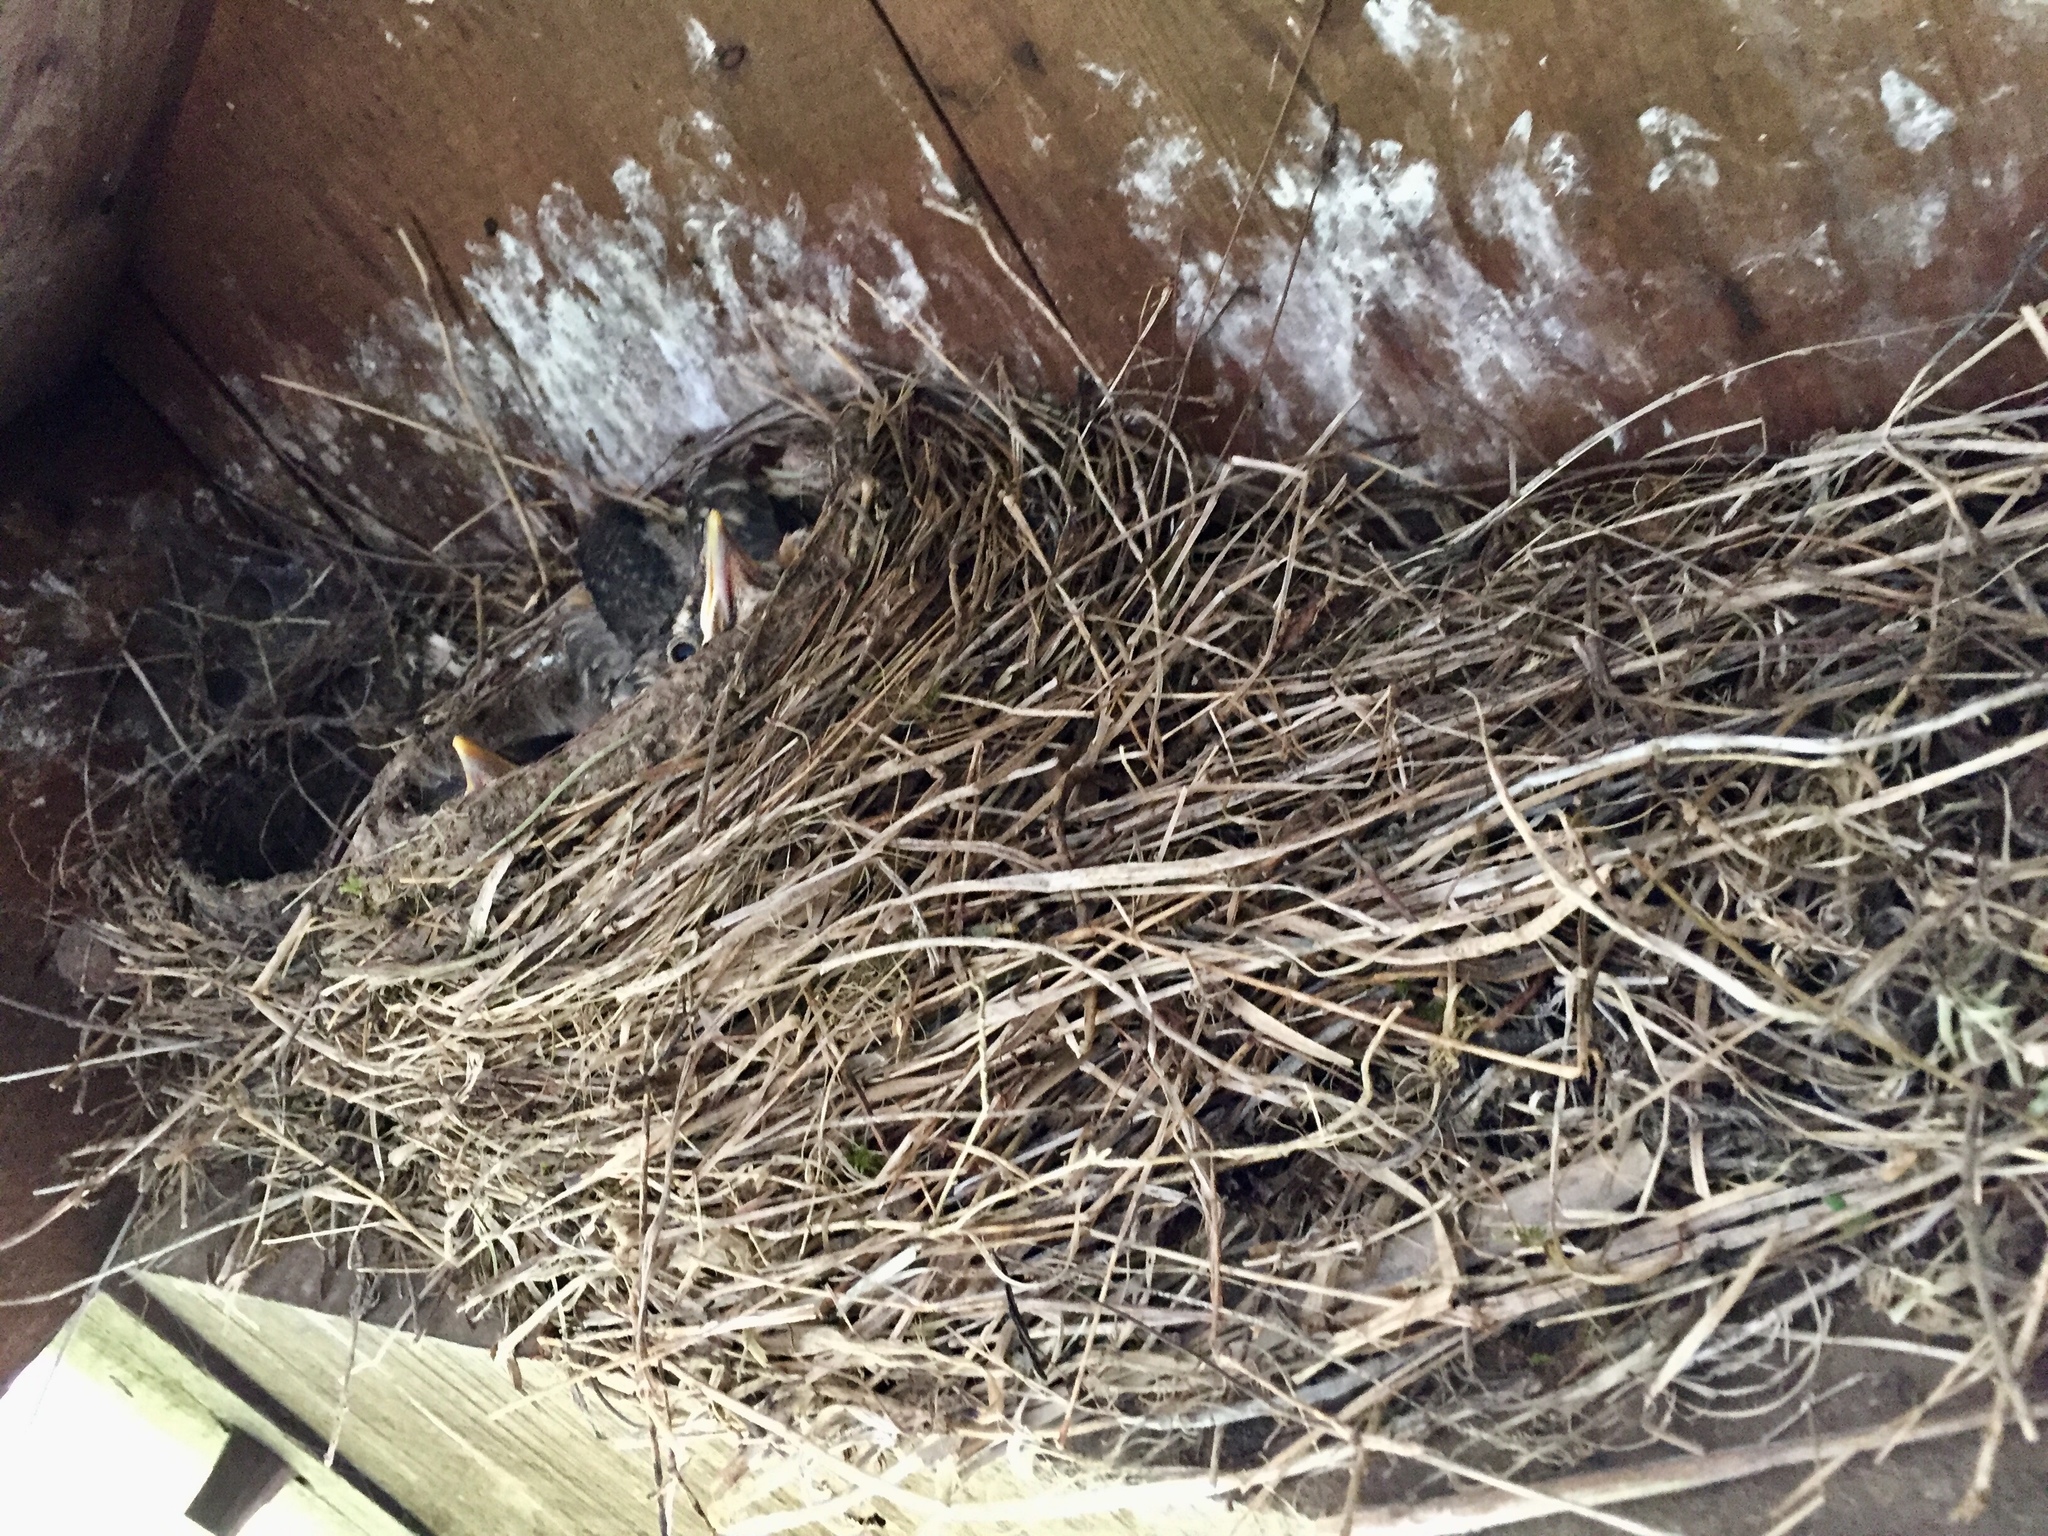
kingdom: Animalia
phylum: Chordata
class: Aves
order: Passeriformes
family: Turdidae
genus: Turdus
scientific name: Turdus migratorius
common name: American robin
